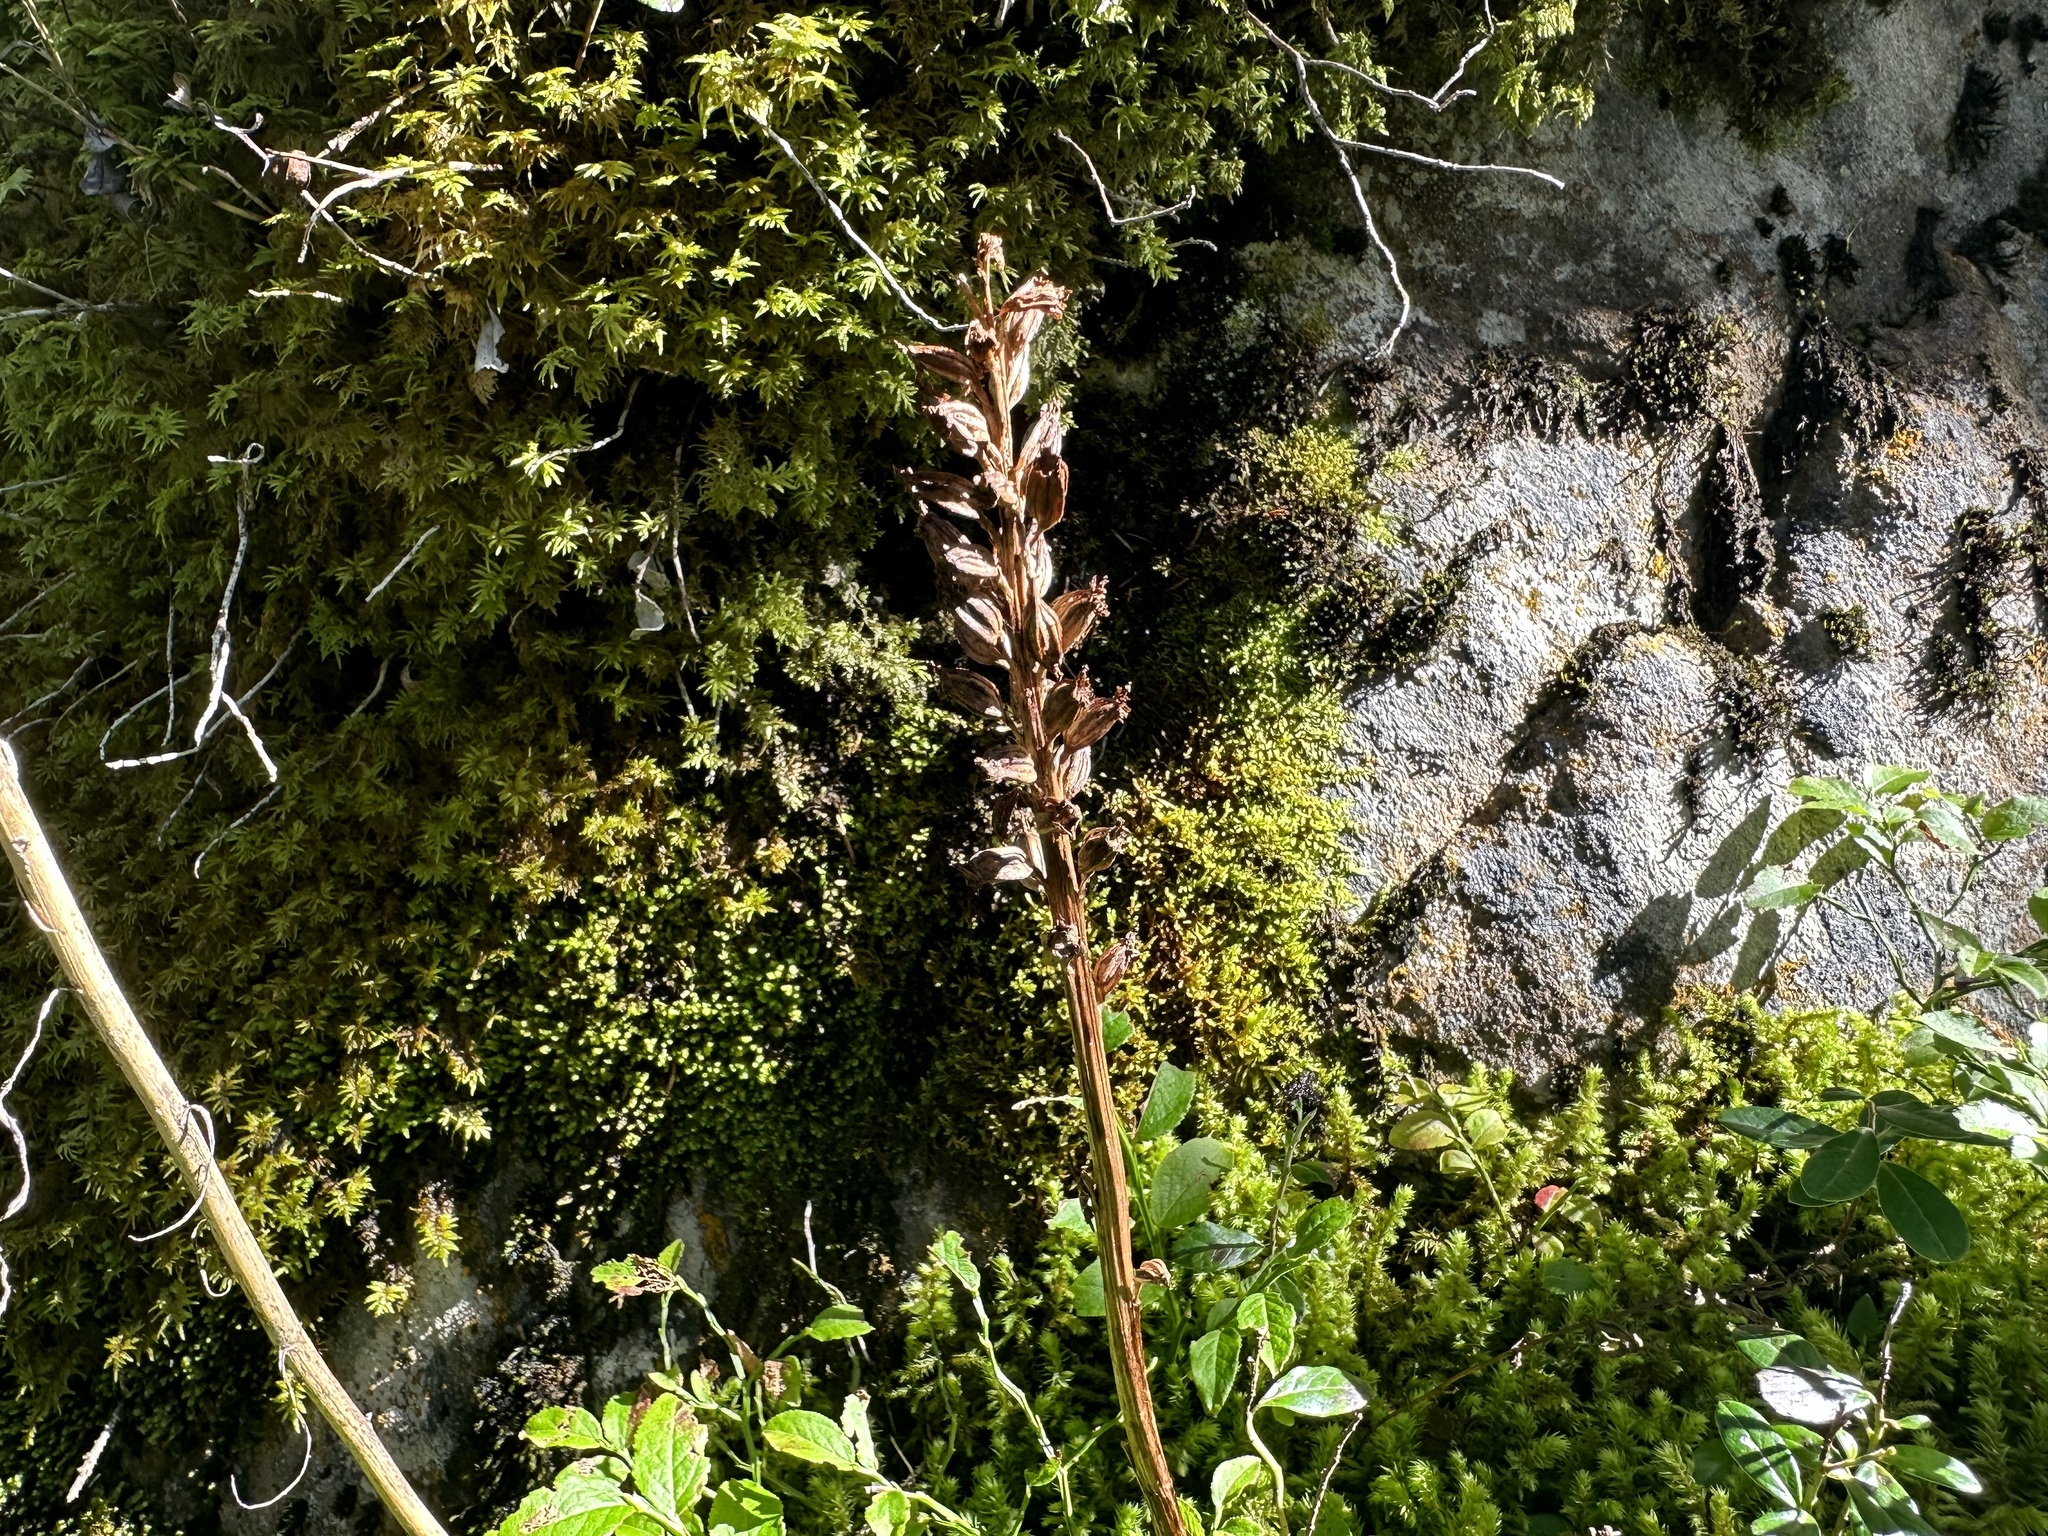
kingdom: Plantae
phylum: Tracheophyta
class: Liliopsida
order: Asparagales
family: Orchidaceae
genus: Neottia
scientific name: Neottia nidus-avis
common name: Bird's-nest orchid
